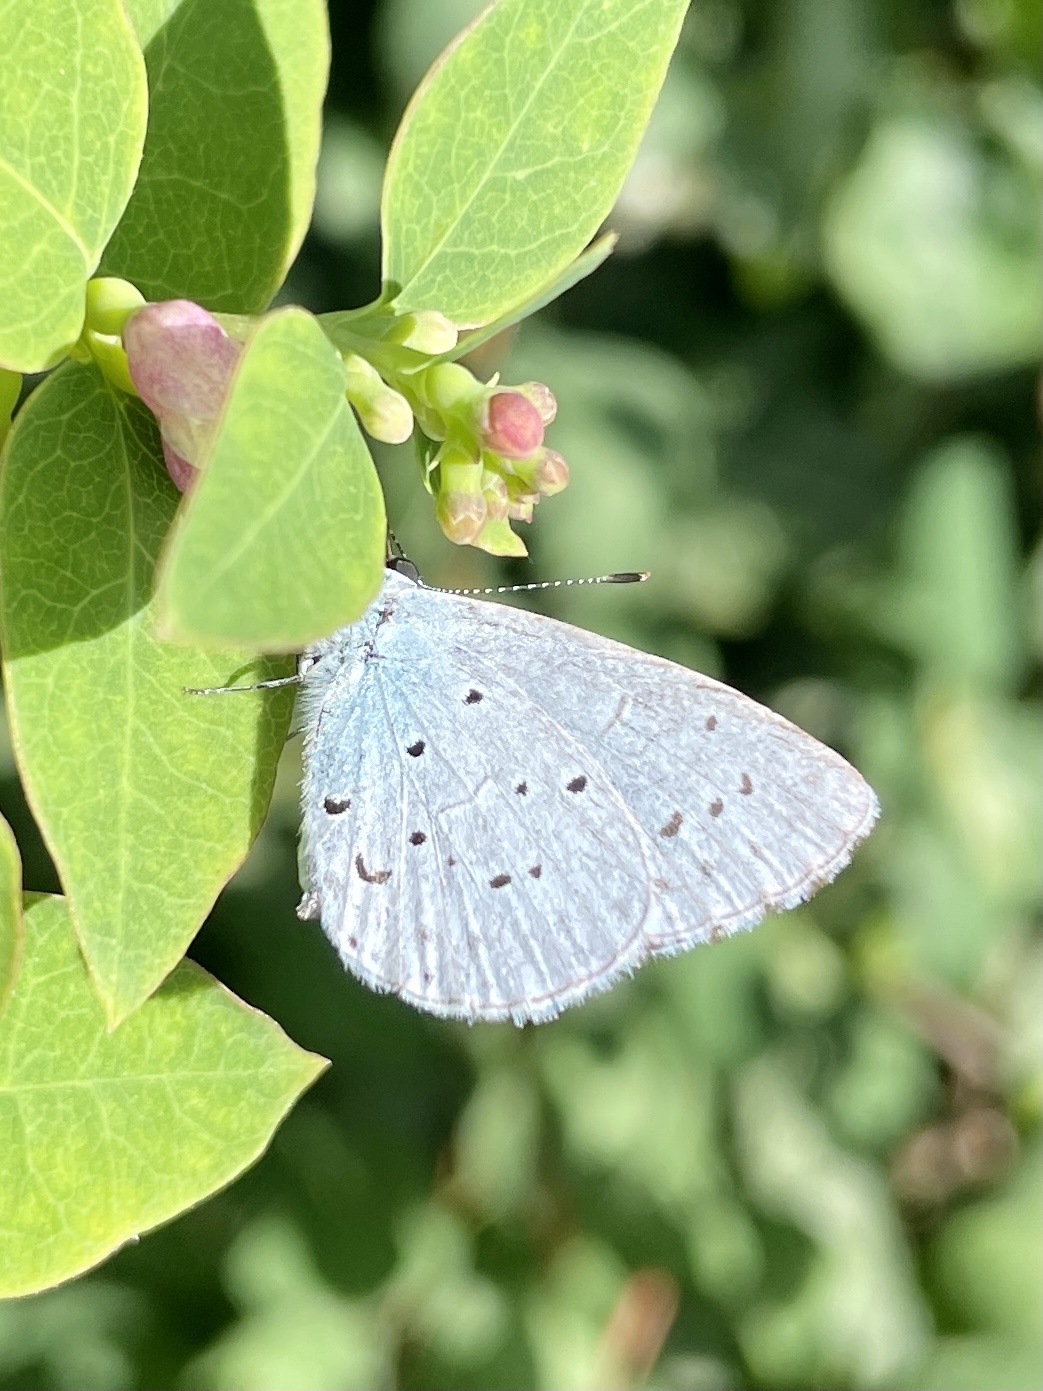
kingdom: Animalia
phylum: Arthropoda
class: Insecta
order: Lepidoptera
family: Lycaenidae
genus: Celastrina
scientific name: Celastrina argiolus
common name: Holly blue
